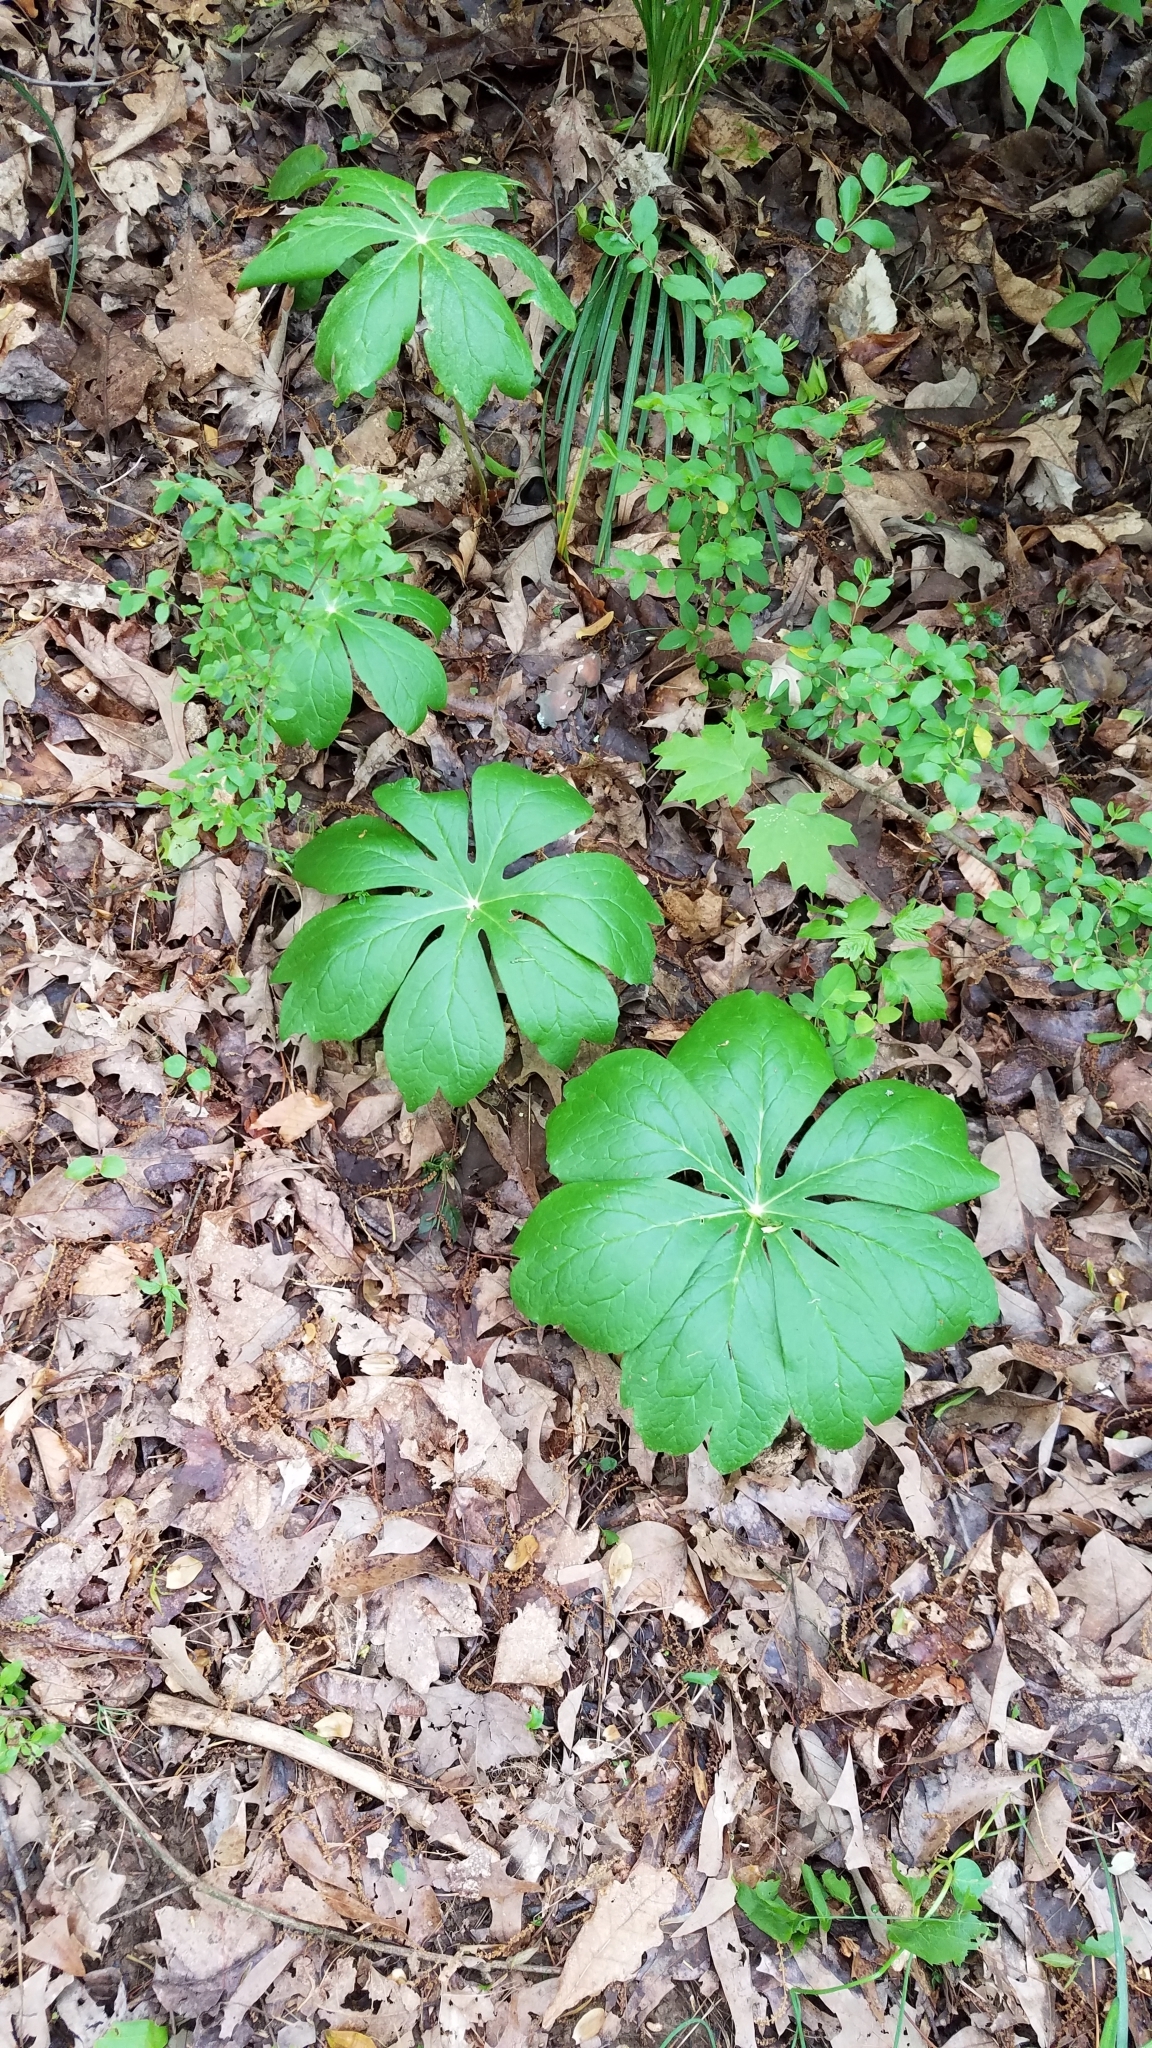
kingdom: Plantae
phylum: Tracheophyta
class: Magnoliopsida
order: Ranunculales
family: Berberidaceae
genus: Podophyllum
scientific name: Podophyllum peltatum
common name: Wild mandrake
